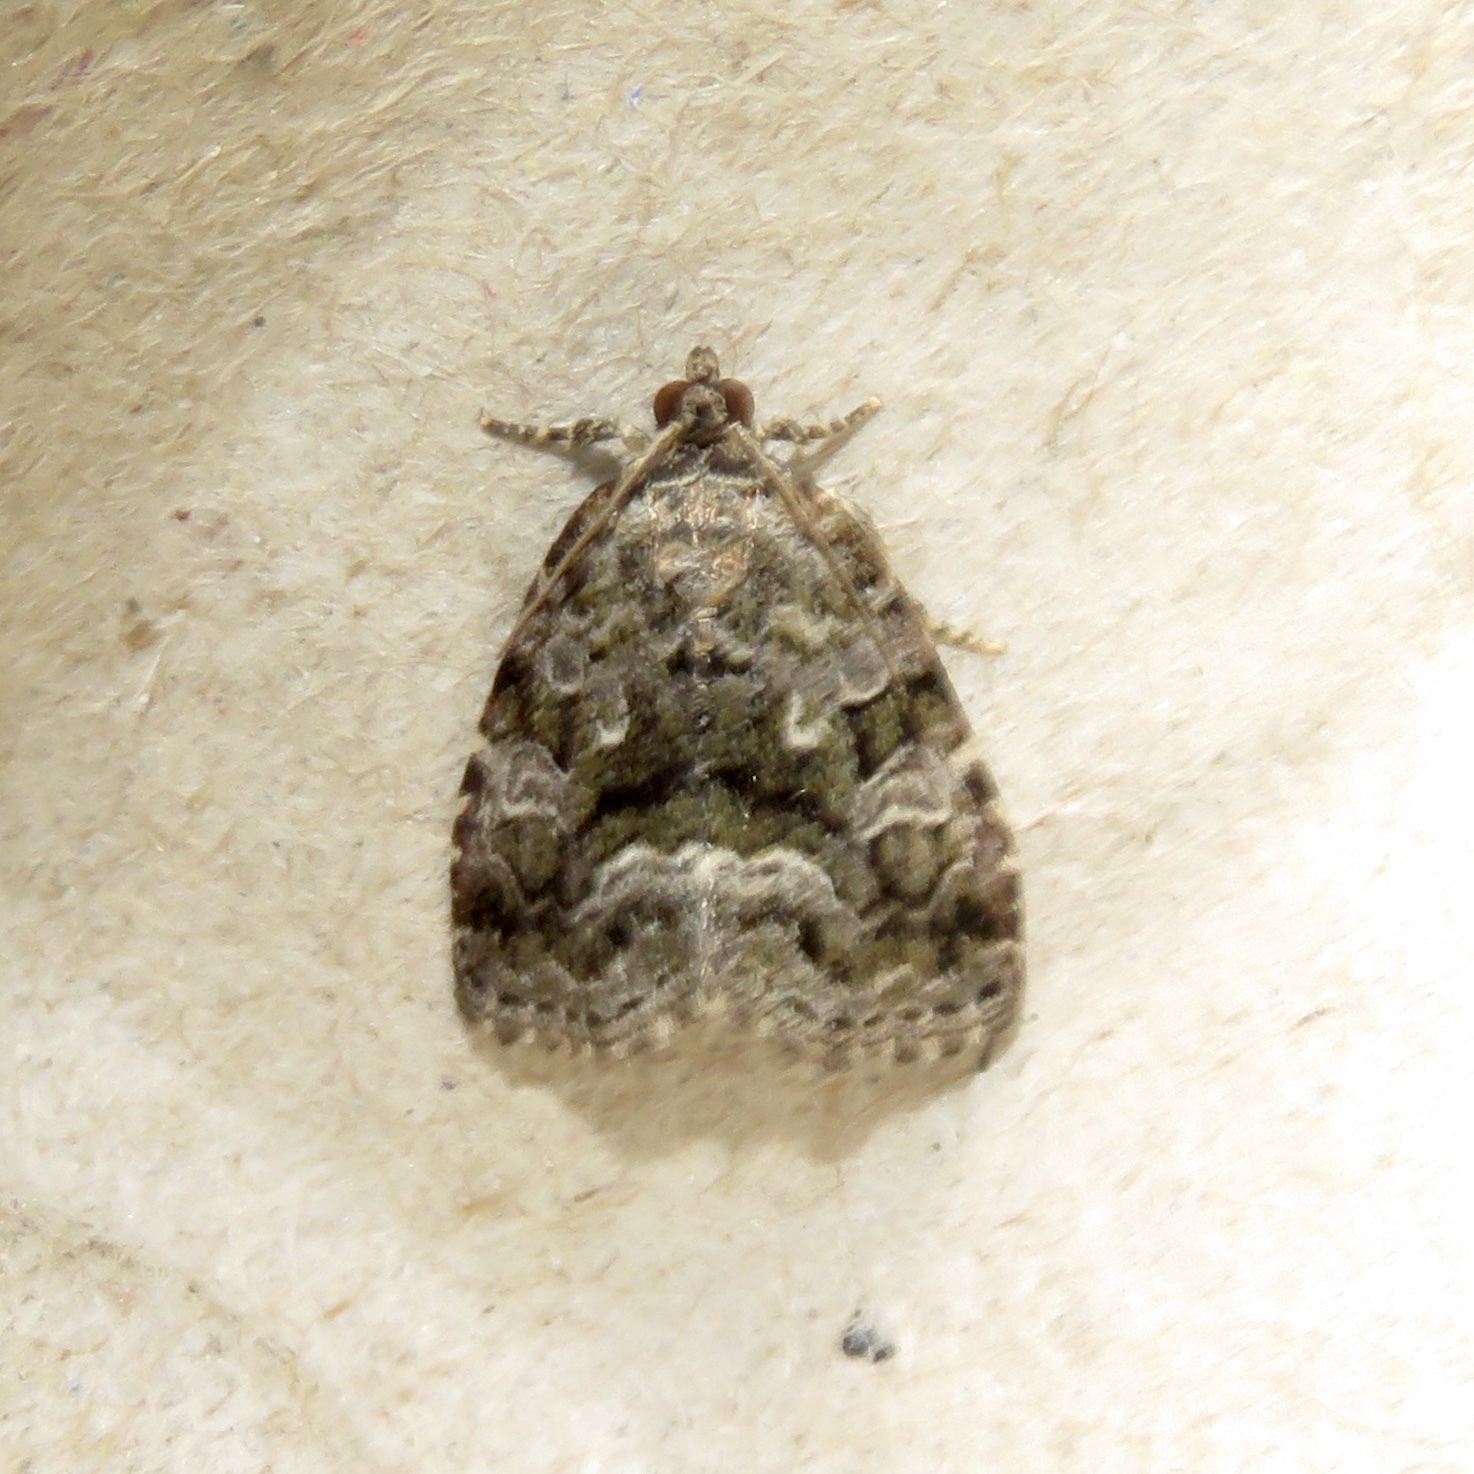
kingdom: Animalia
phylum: Arthropoda
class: Insecta
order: Lepidoptera
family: Noctuidae
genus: Protodeltote
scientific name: Protodeltote muscosula
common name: Large mossy glyph
